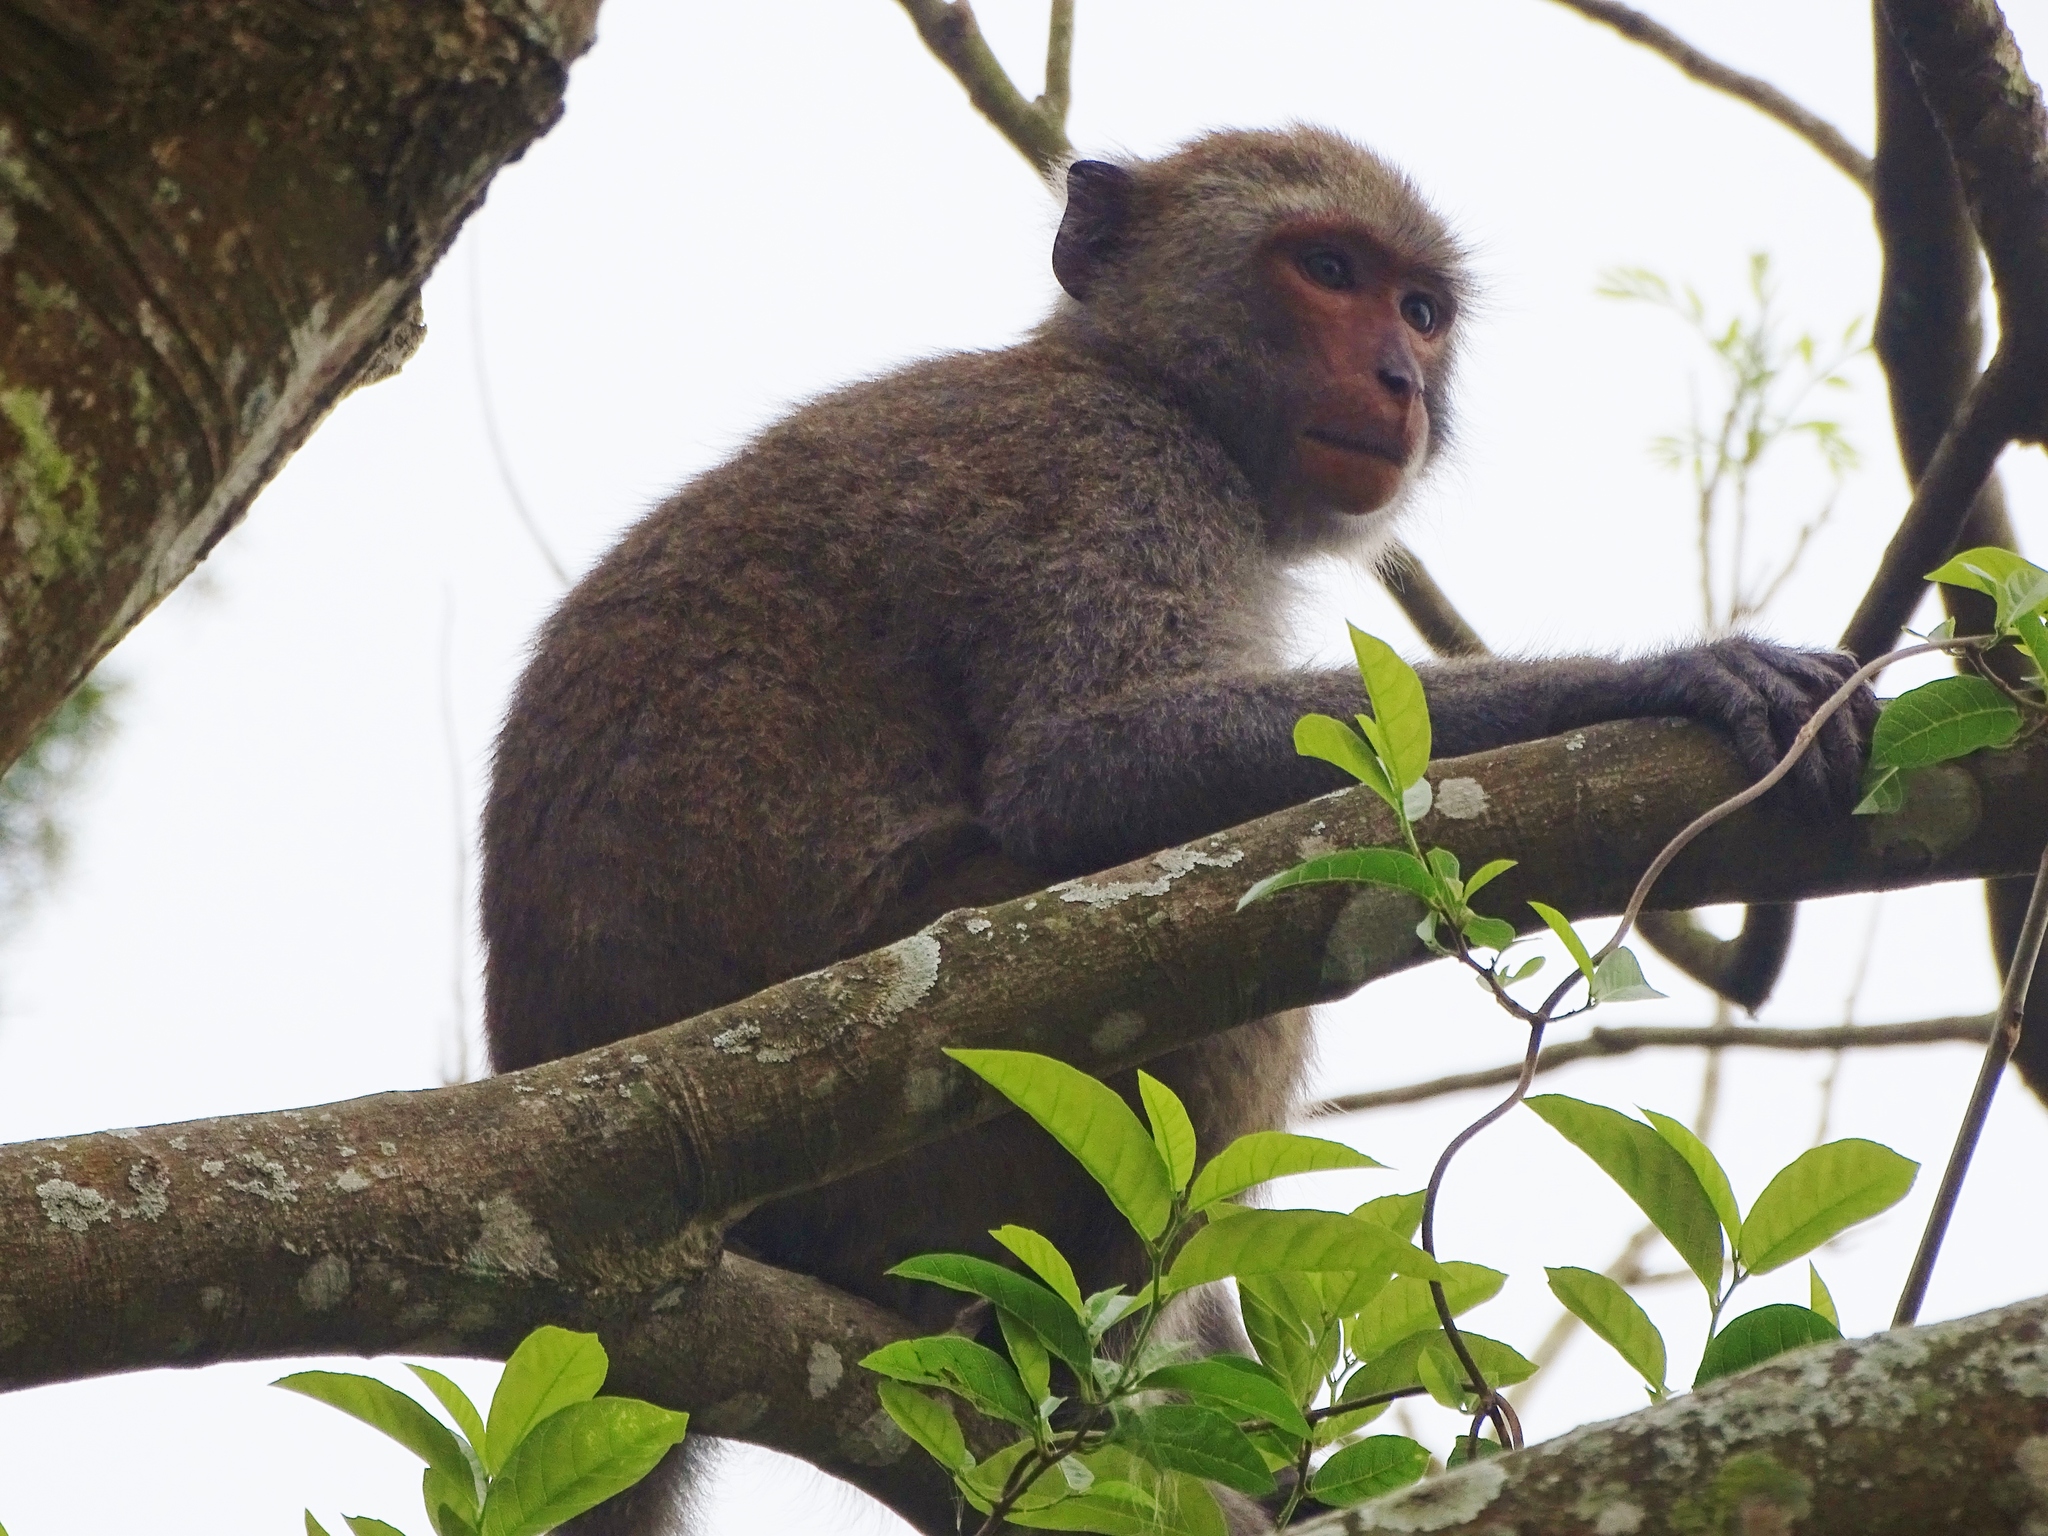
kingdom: Animalia
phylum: Chordata
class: Mammalia
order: Primates
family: Cercopithecidae
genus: Macaca
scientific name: Macaca cyclopis
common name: Formosan rock macaque
